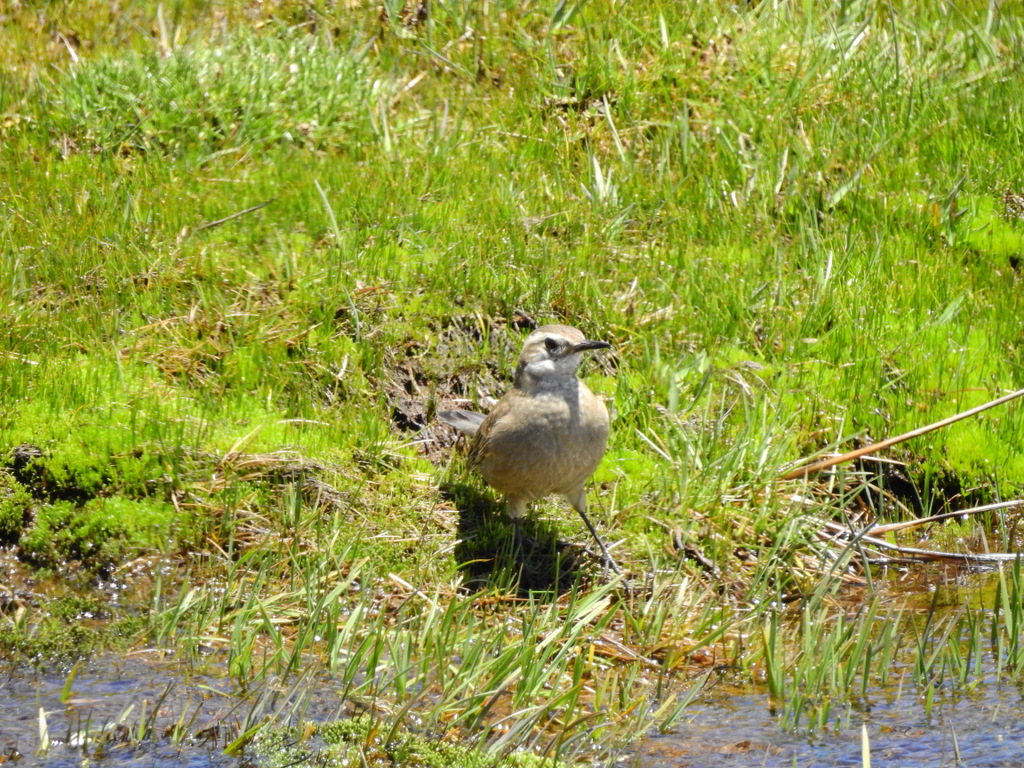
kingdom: Animalia
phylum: Chordata
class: Aves
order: Passeriformes
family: Furnariidae
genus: Cinclodes
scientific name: Cinclodes fuscus
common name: Buff-winged cinclodes
